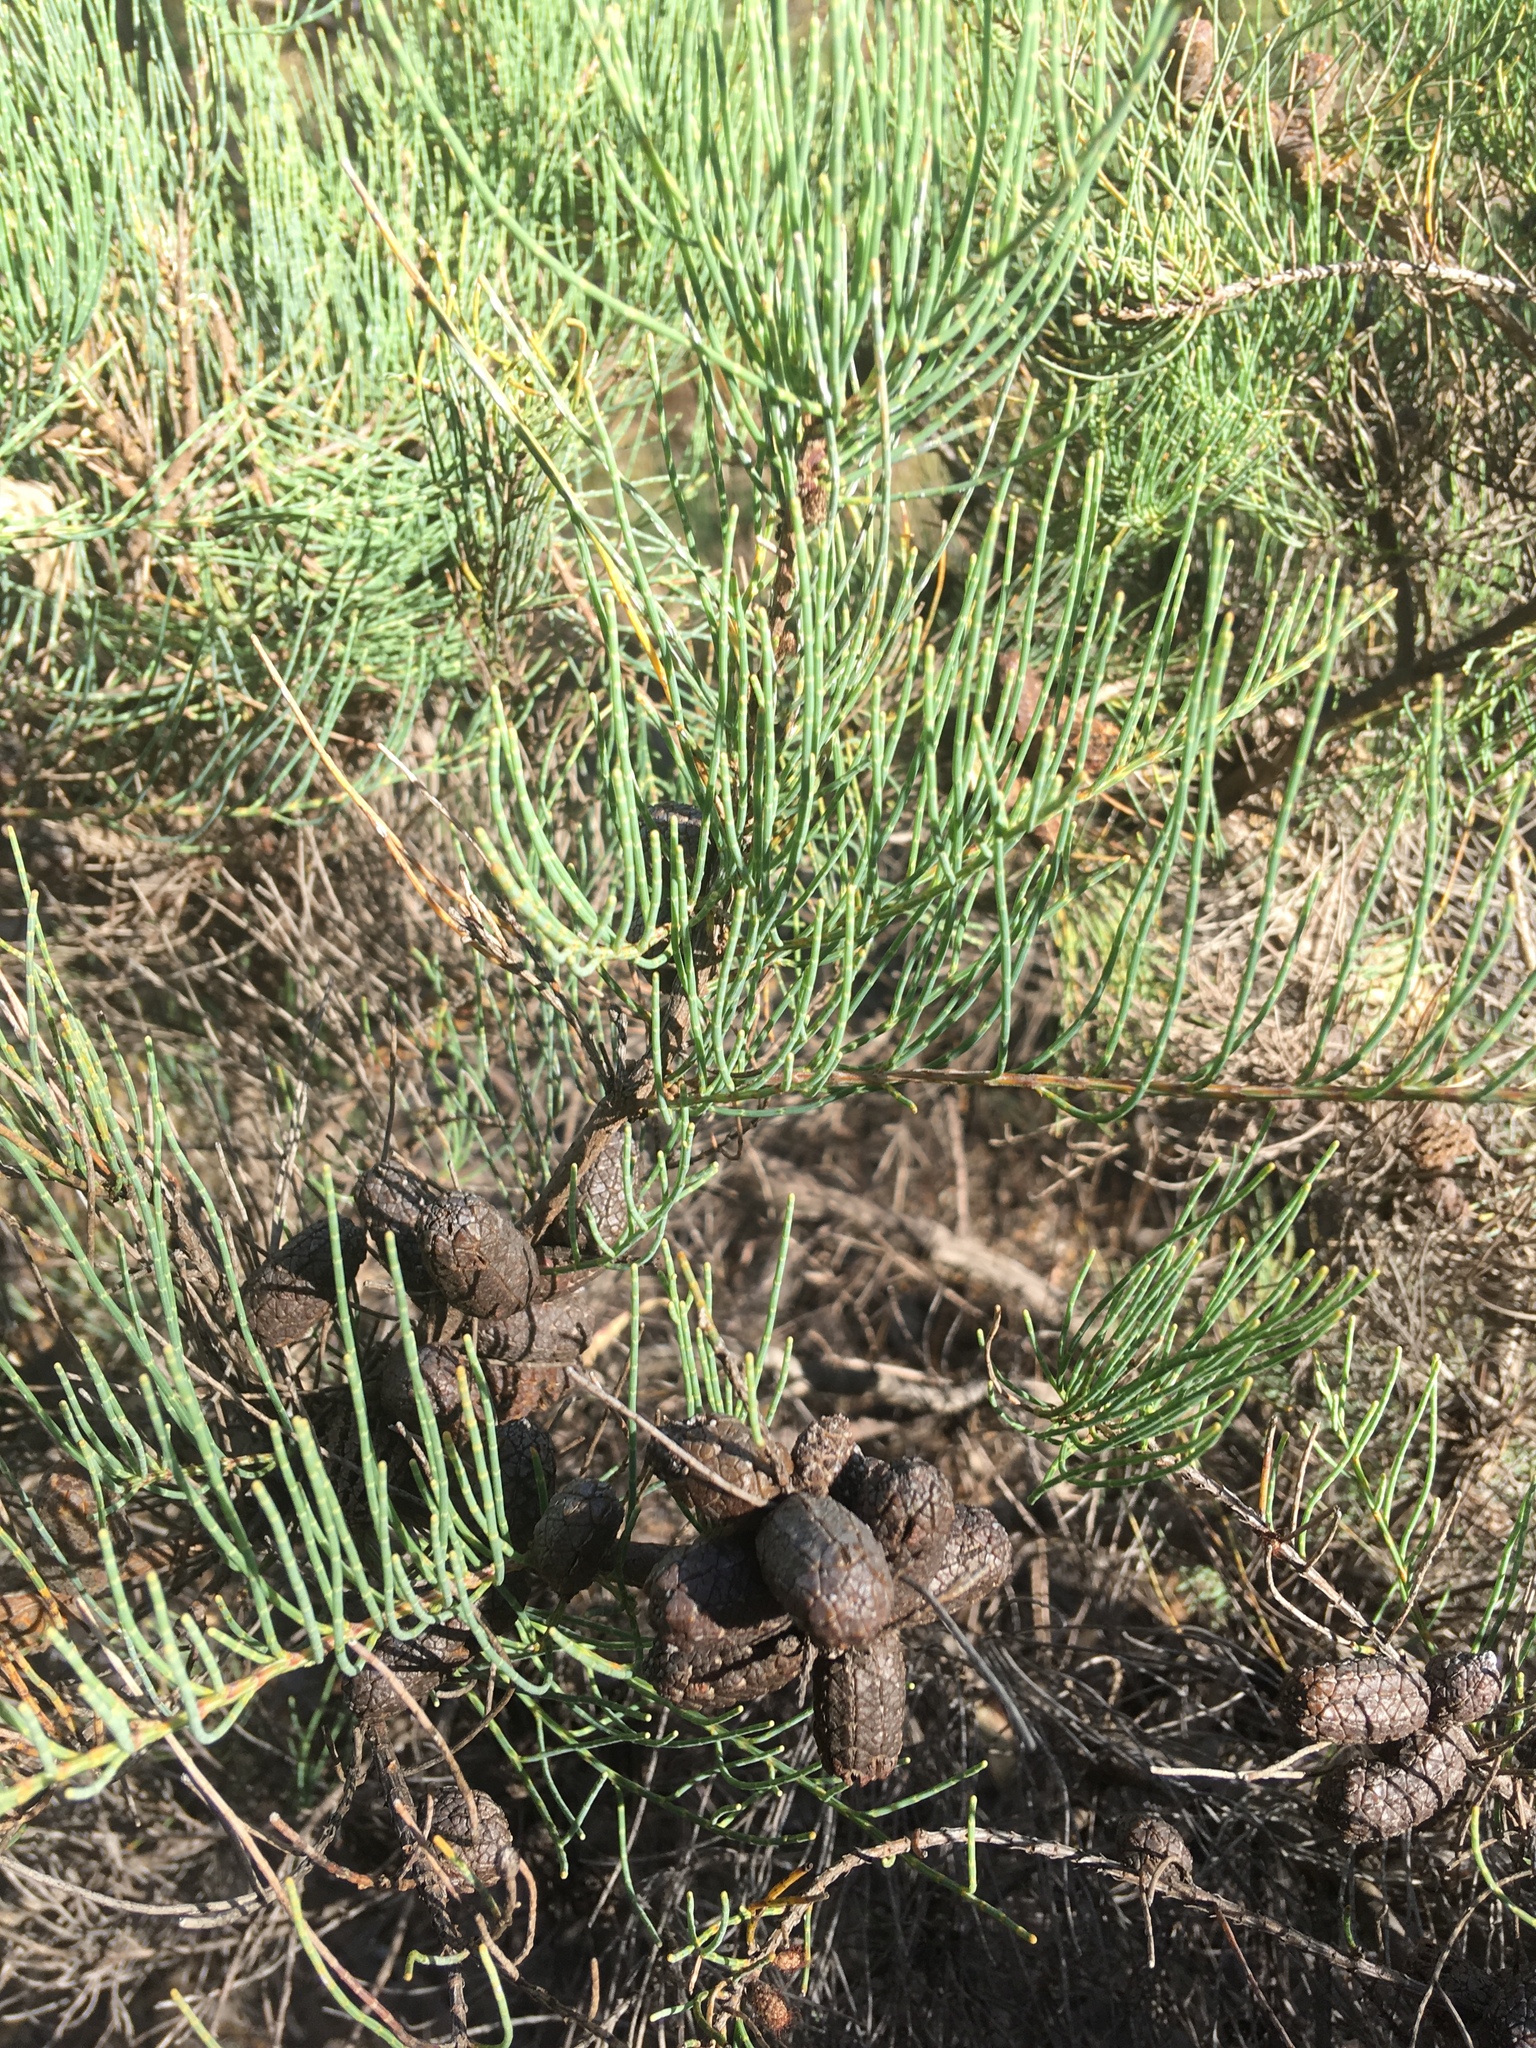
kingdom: Plantae
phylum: Tracheophyta
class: Magnoliopsida
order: Fagales
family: Casuarinaceae
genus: Allocasuarina
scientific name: Allocasuarina humilis
